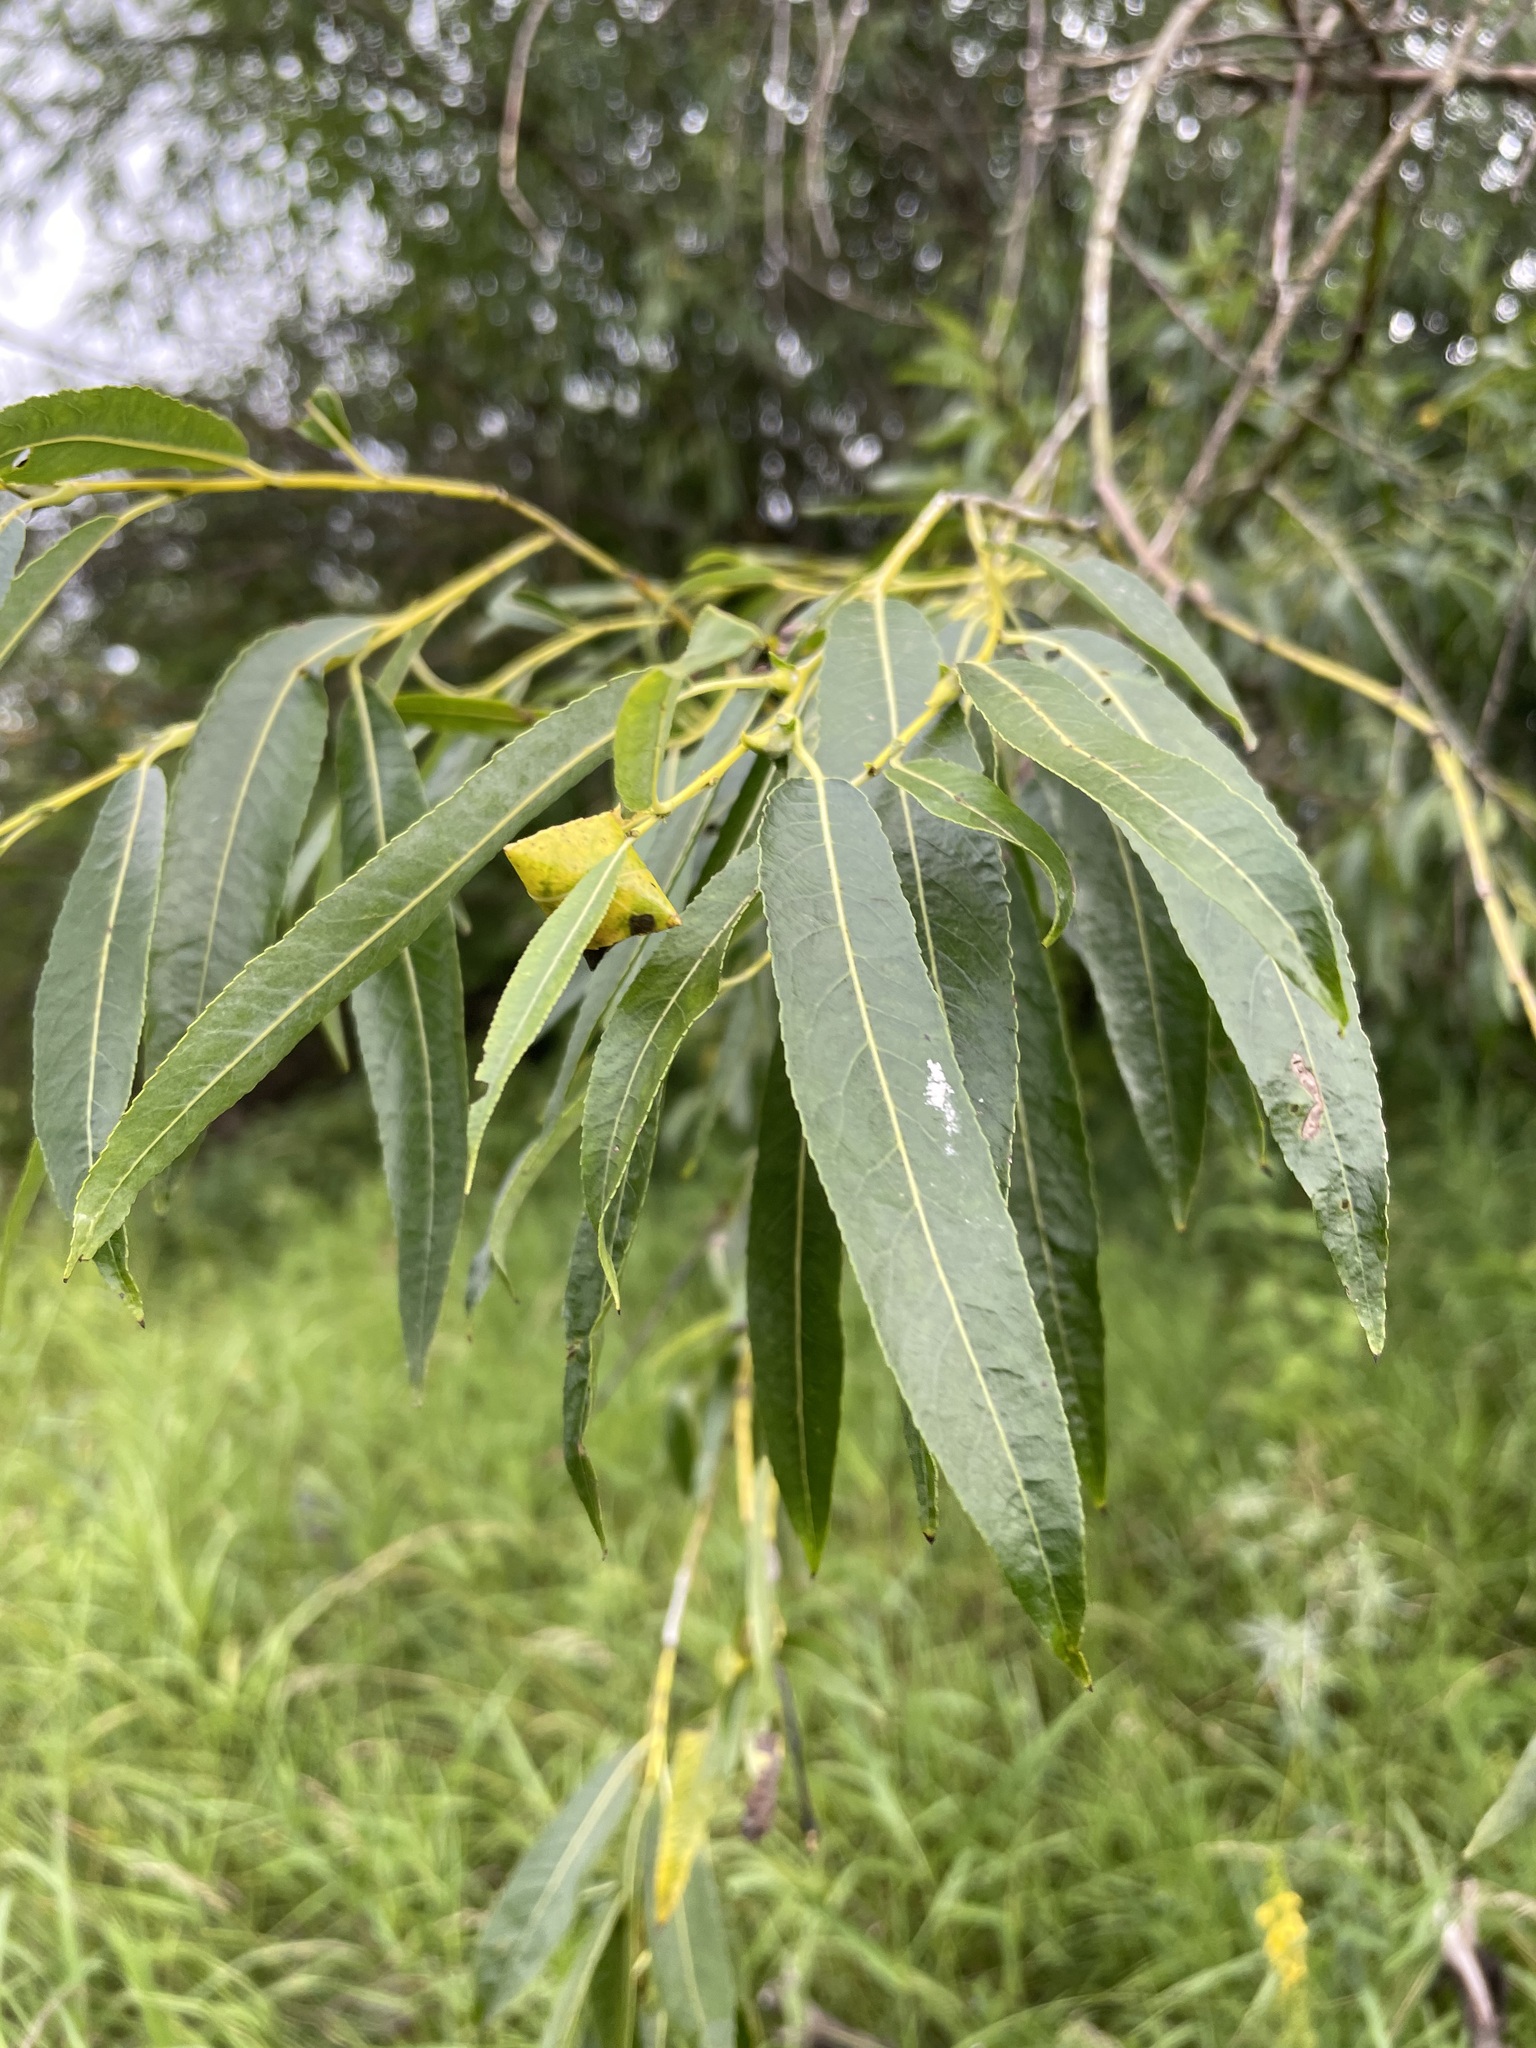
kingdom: Plantae
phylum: Tracheophyta
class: Magnoliopsida
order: Malpighiales
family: Salicaceae
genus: Salix
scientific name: Salix acutifolia
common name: Siberian violet-willow
